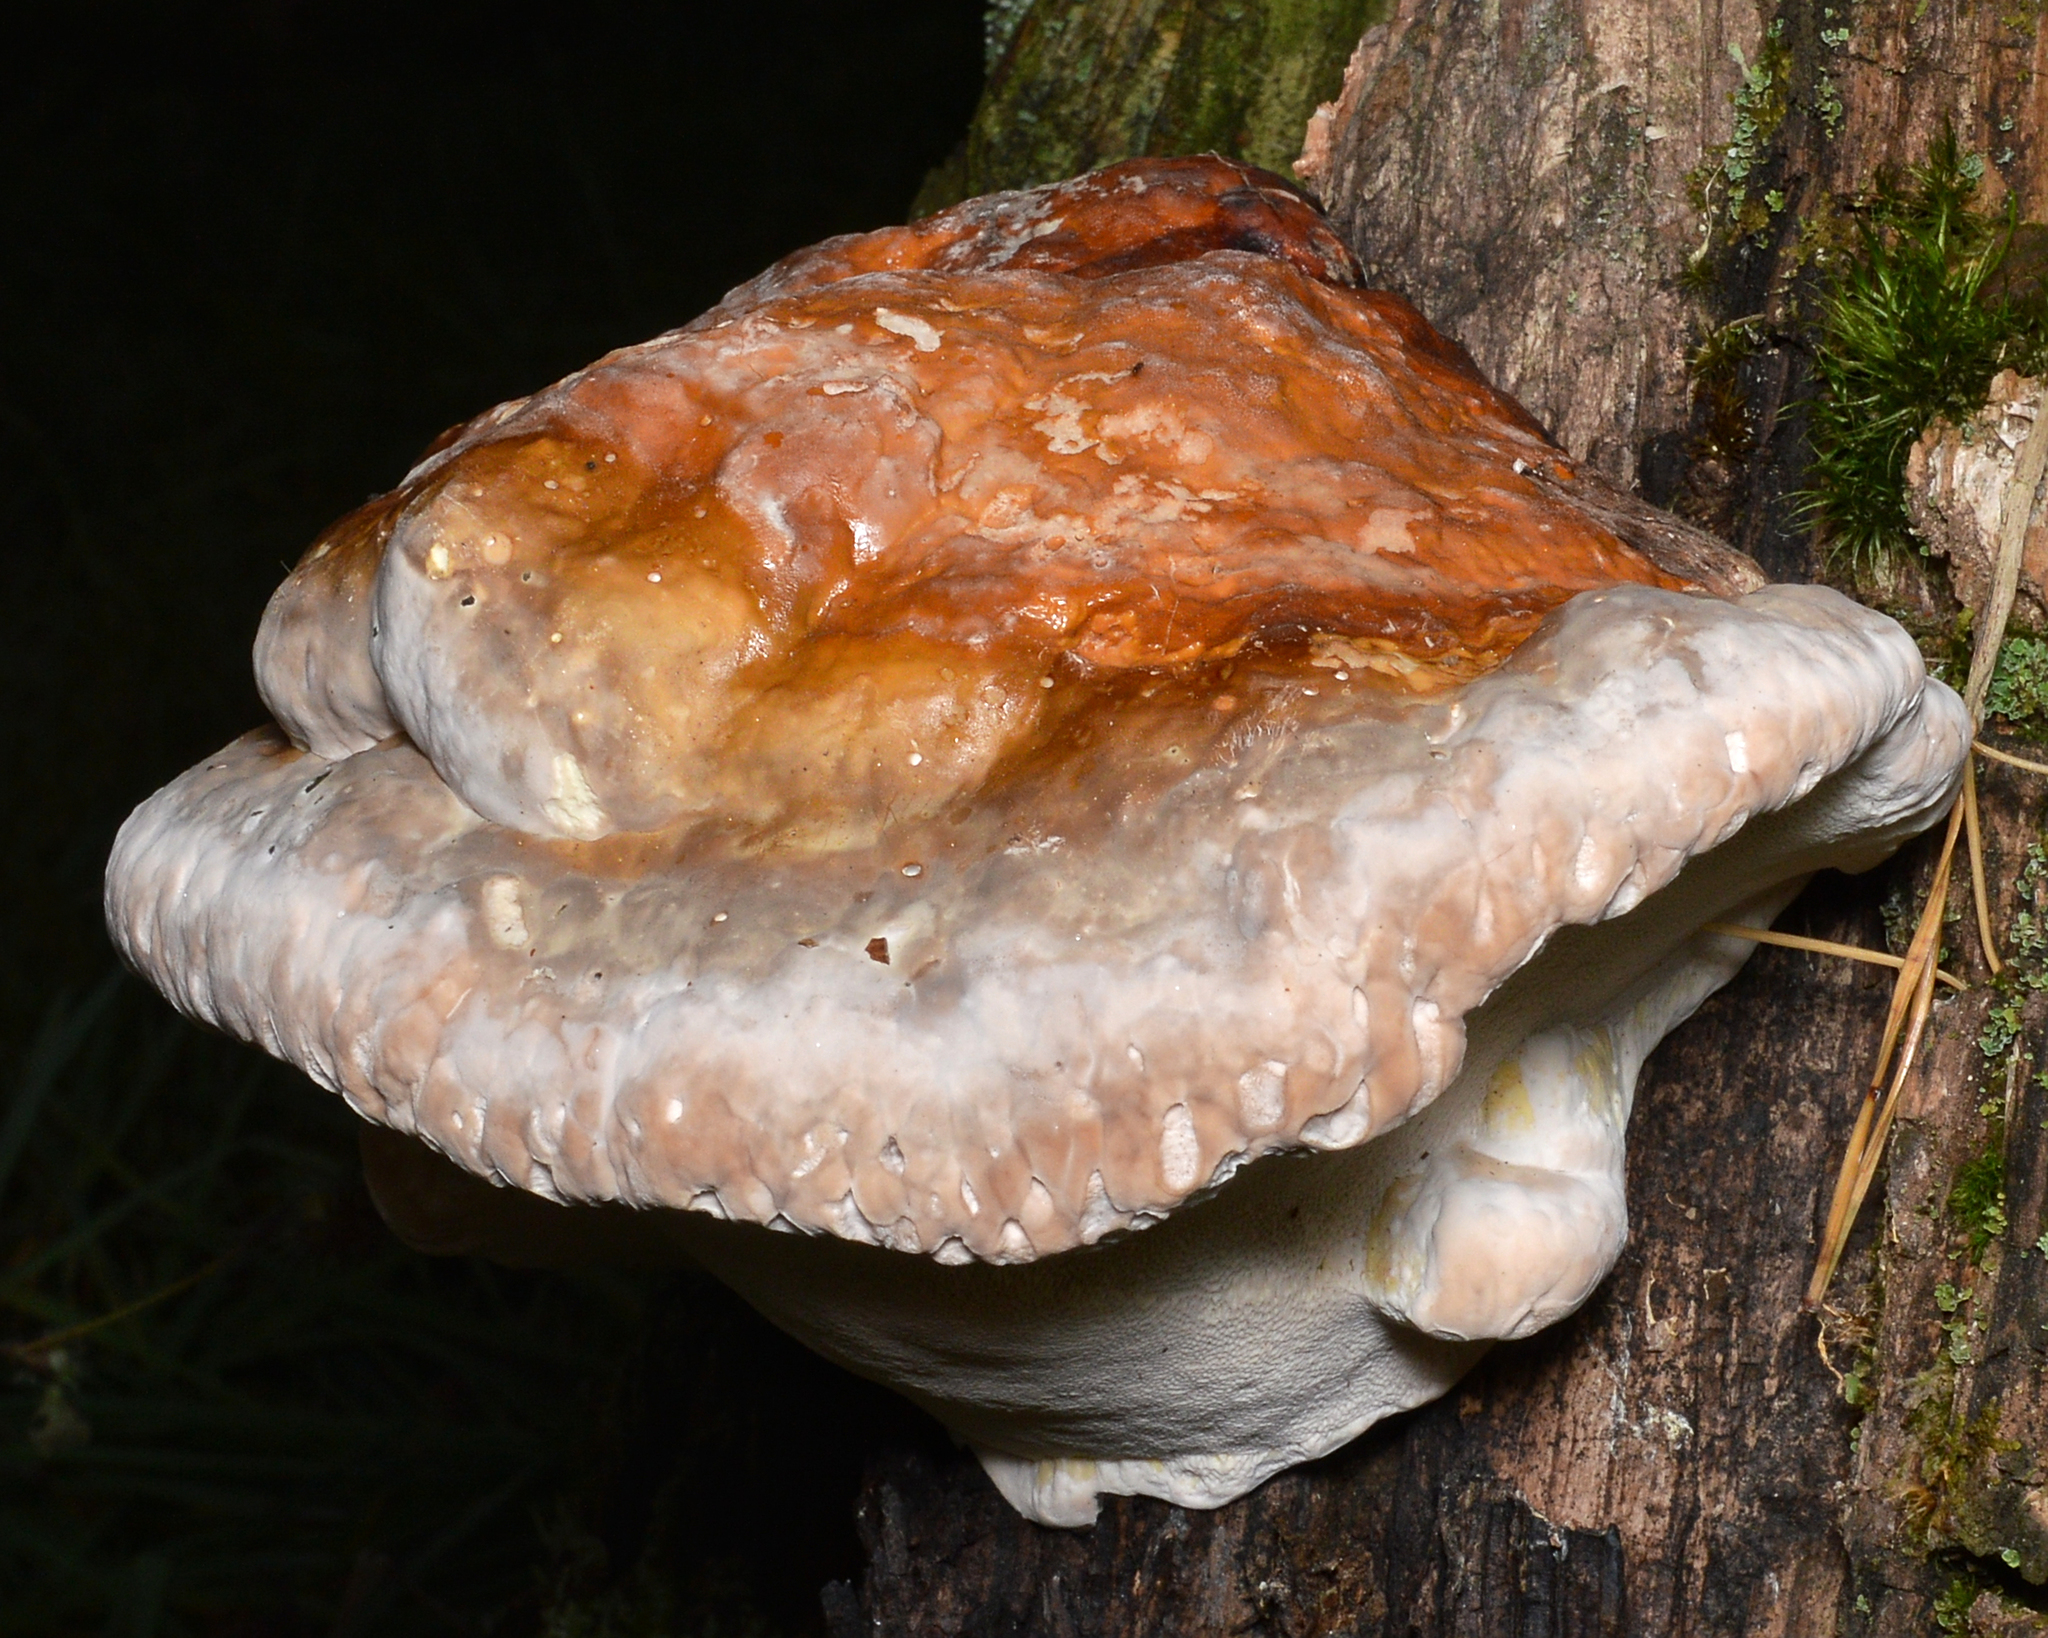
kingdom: Fungi
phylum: Basidiomycota
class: Agaricomycetes
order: Polyporales
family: Fomitopsidaceae
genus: Fomitopsis
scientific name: Fomitopsis pinicola
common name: Red-belted bracket
